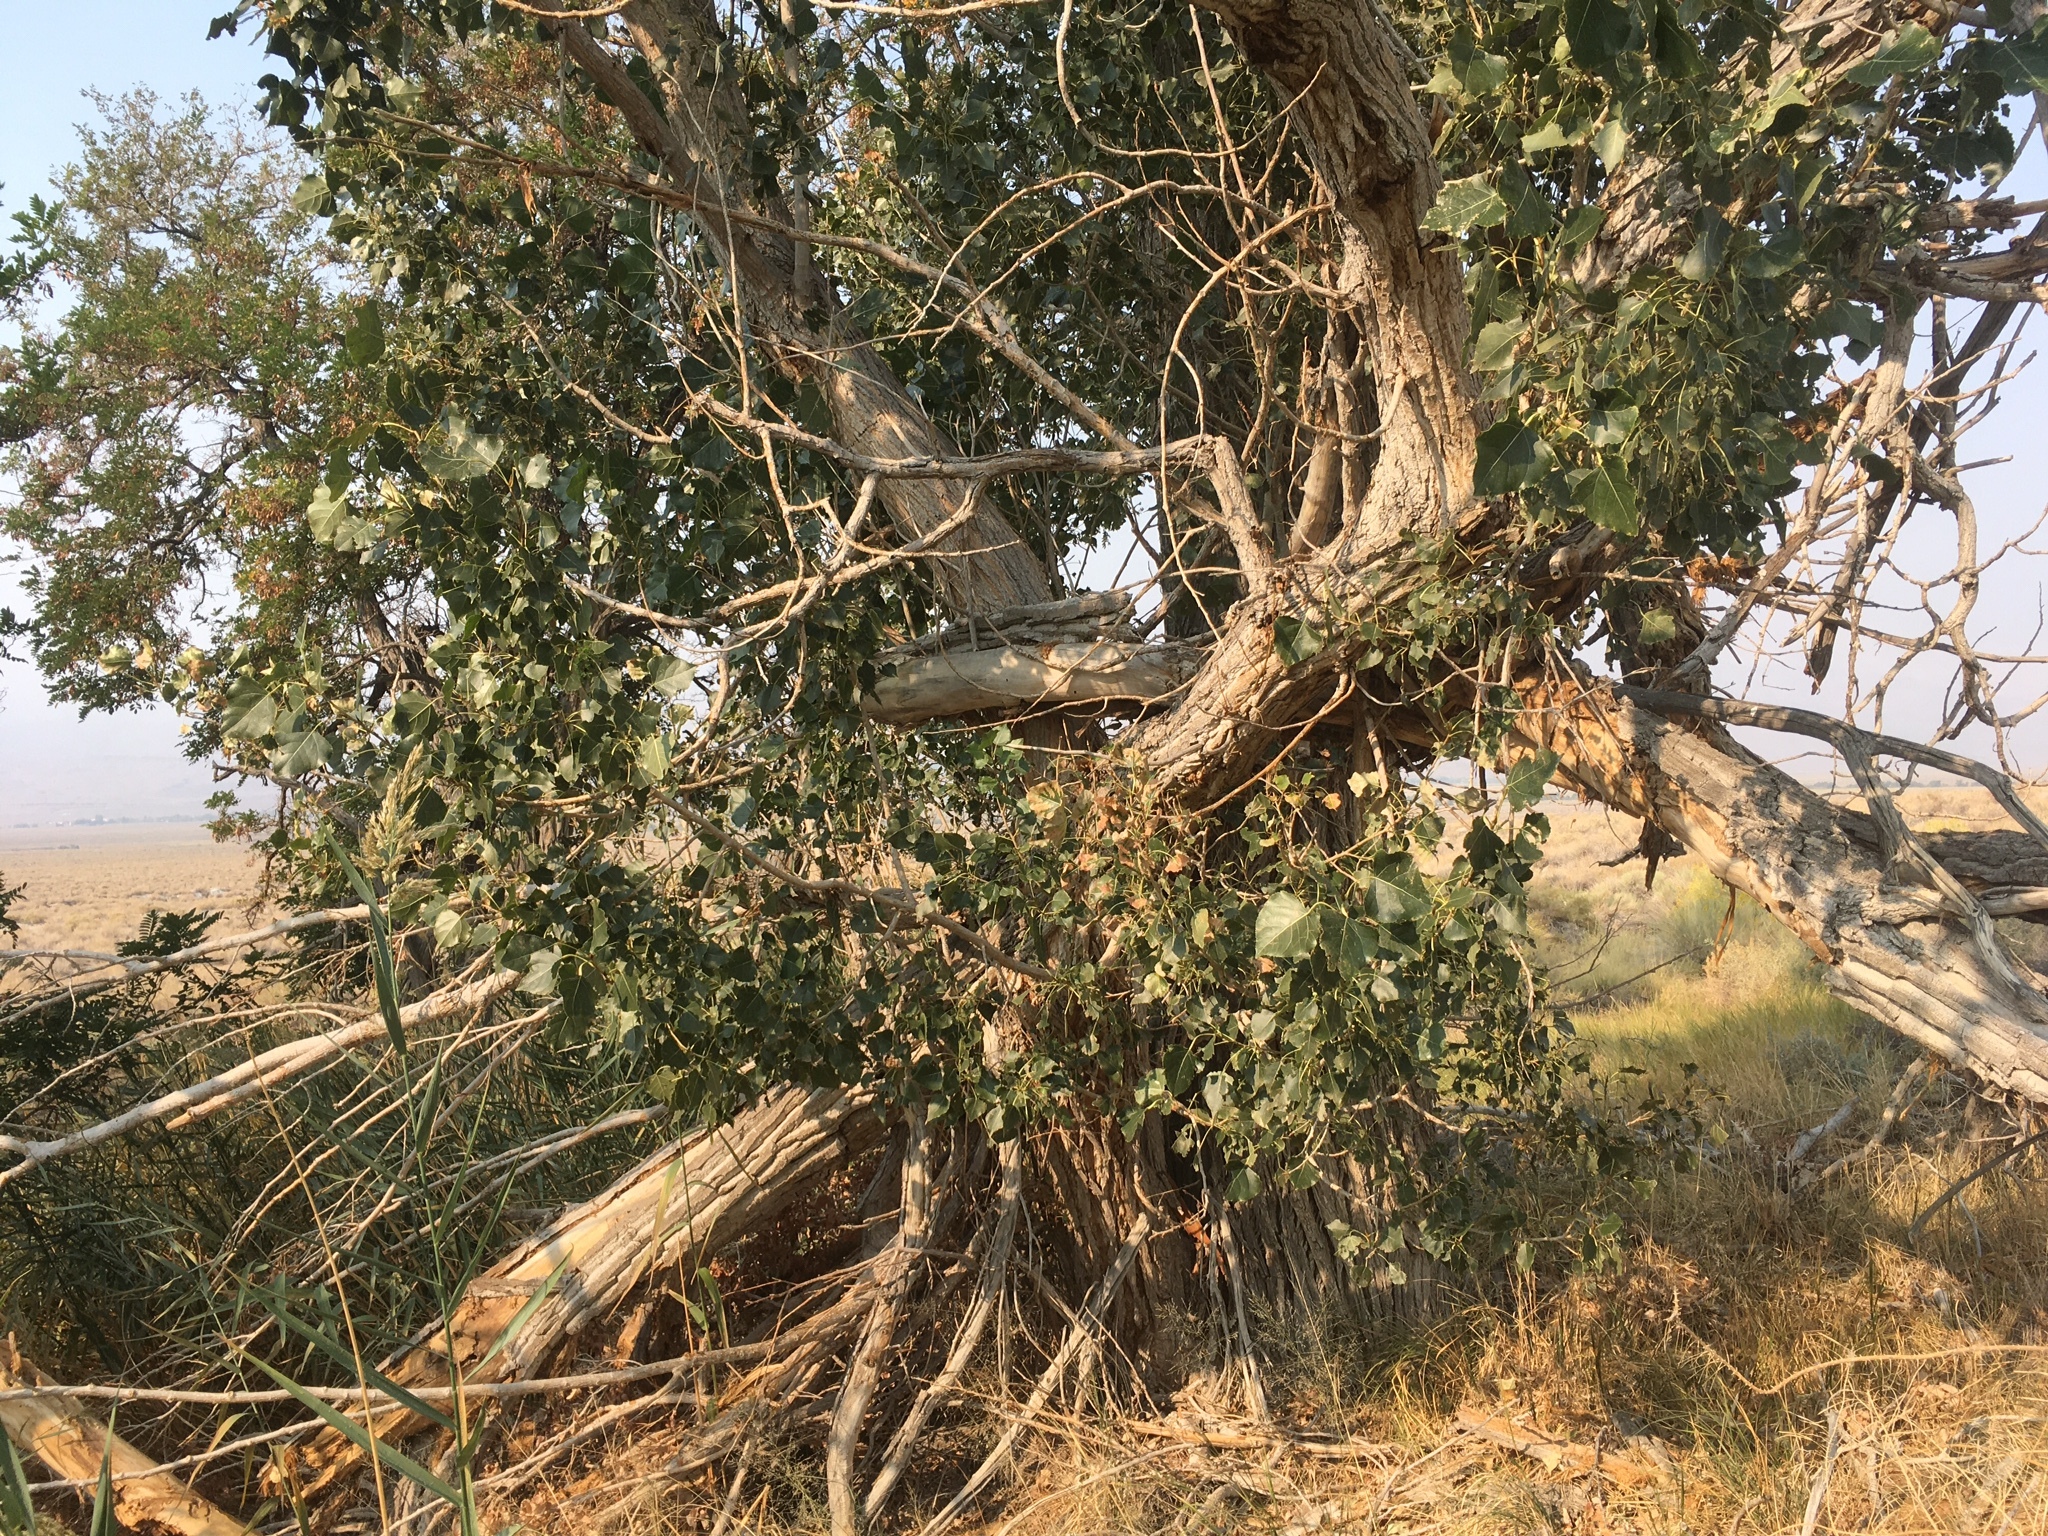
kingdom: Plantae
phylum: Tracheophyta
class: Magnoliopsida
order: Malpighiales
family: Salicaceae
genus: Populus
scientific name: Populus fremontii
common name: Fremont's cottonwood
